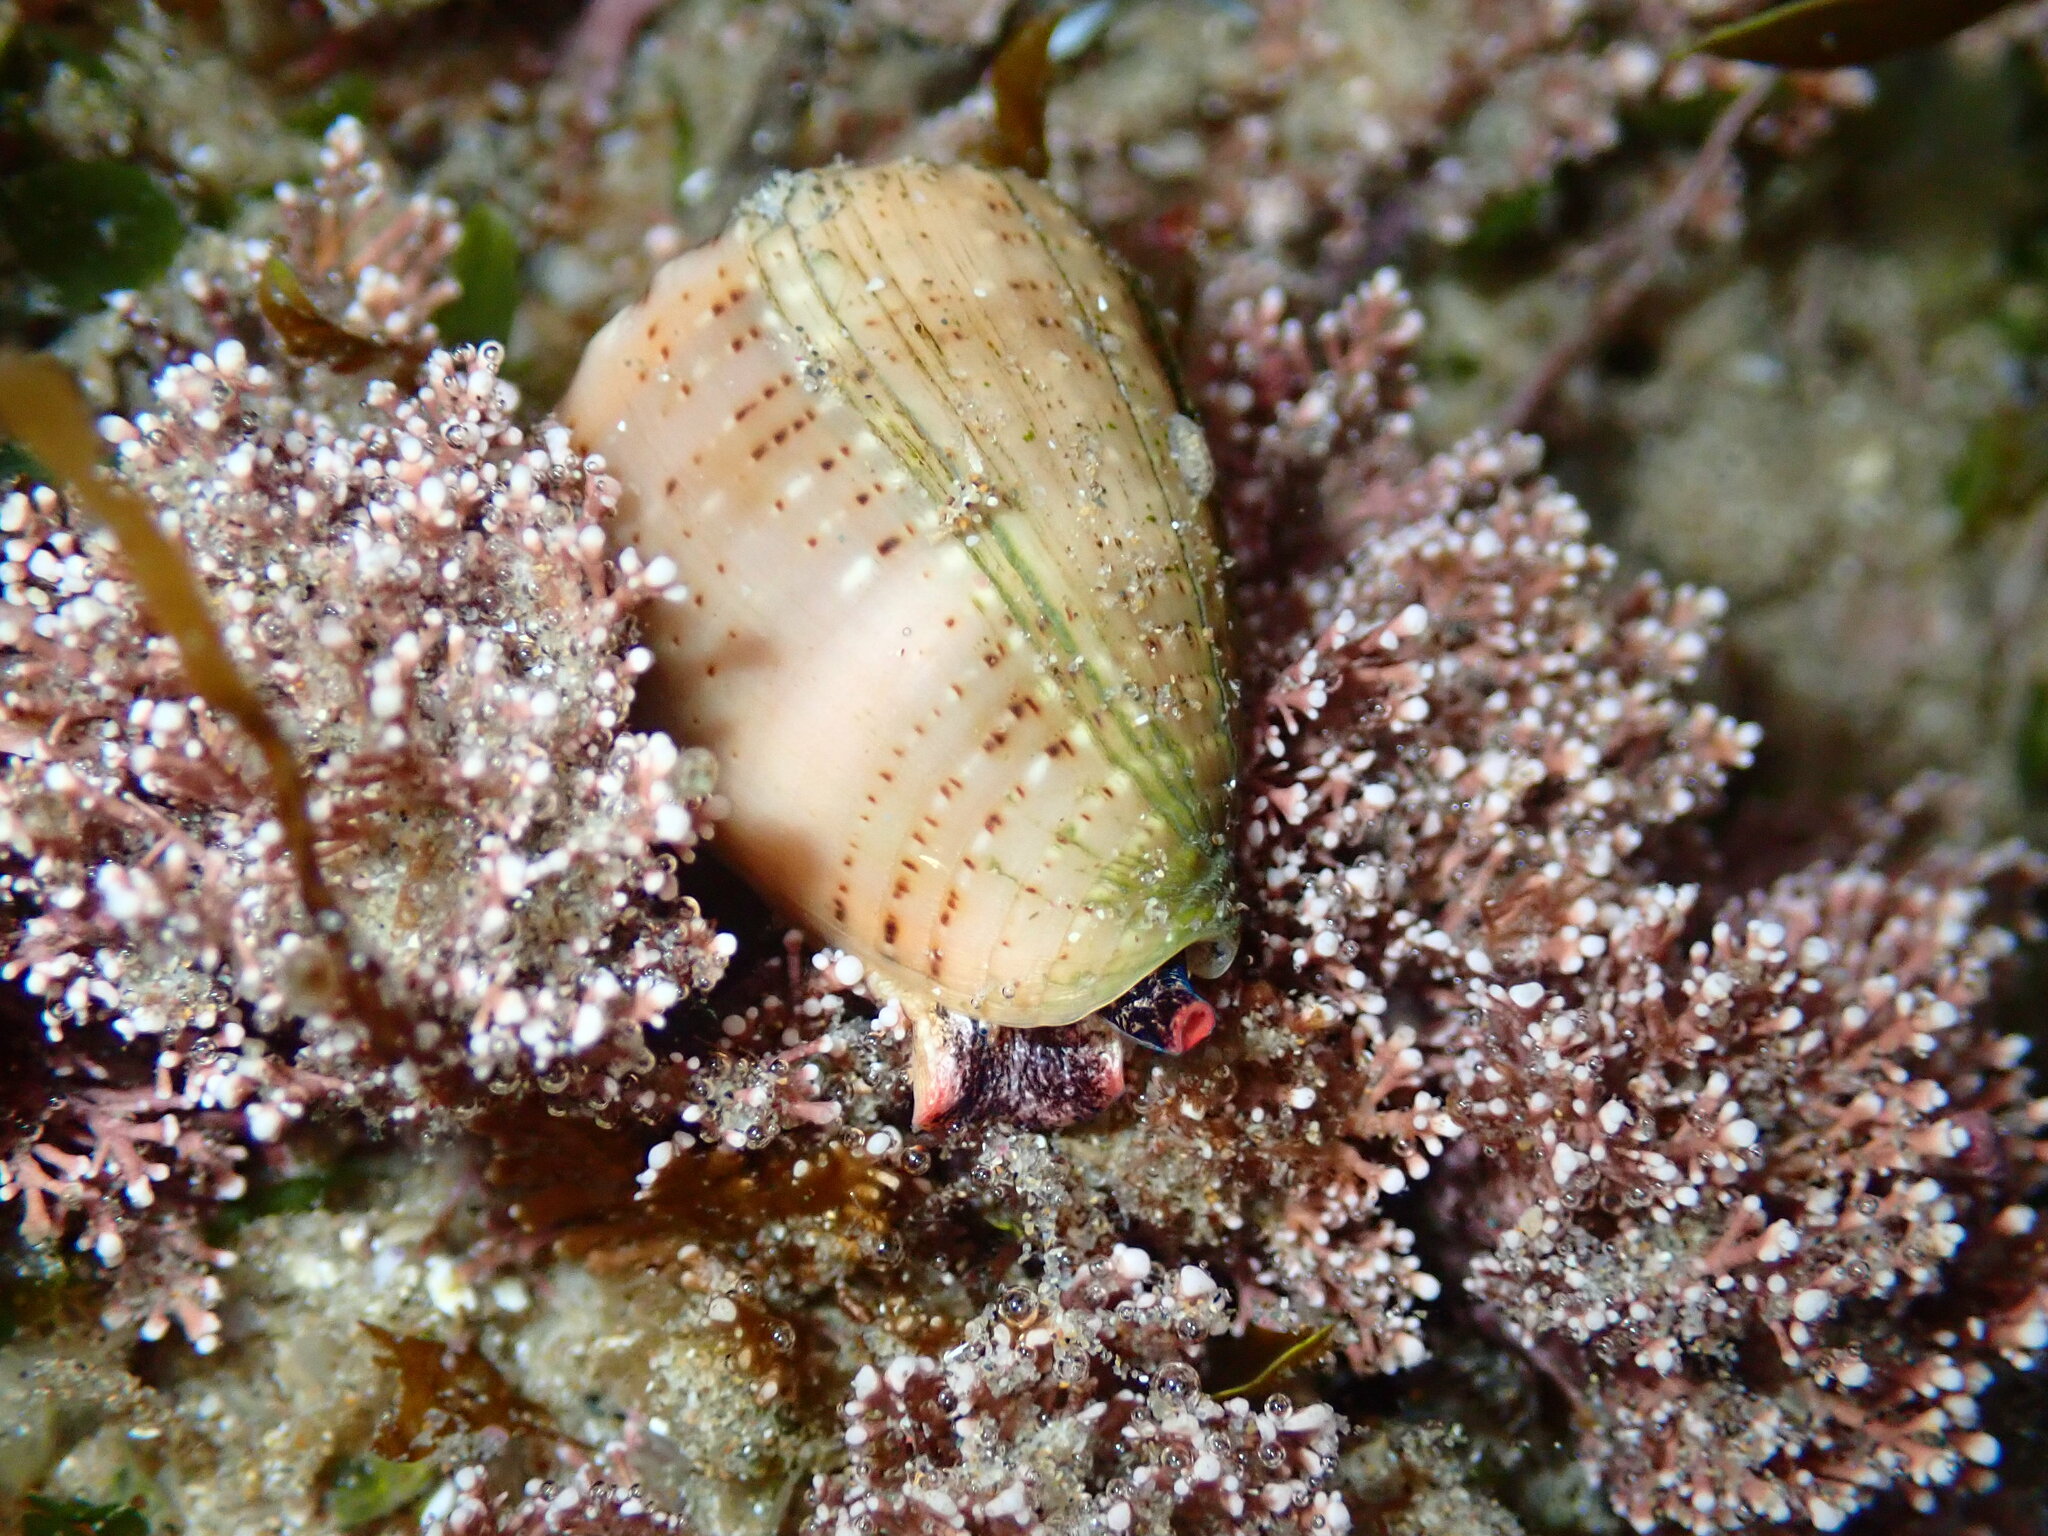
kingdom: Animalia
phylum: Mollusca
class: Gastropoda
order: Neogastropoda
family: Conidae
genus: Conus
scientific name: Conus coronatus
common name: Coronated cone
